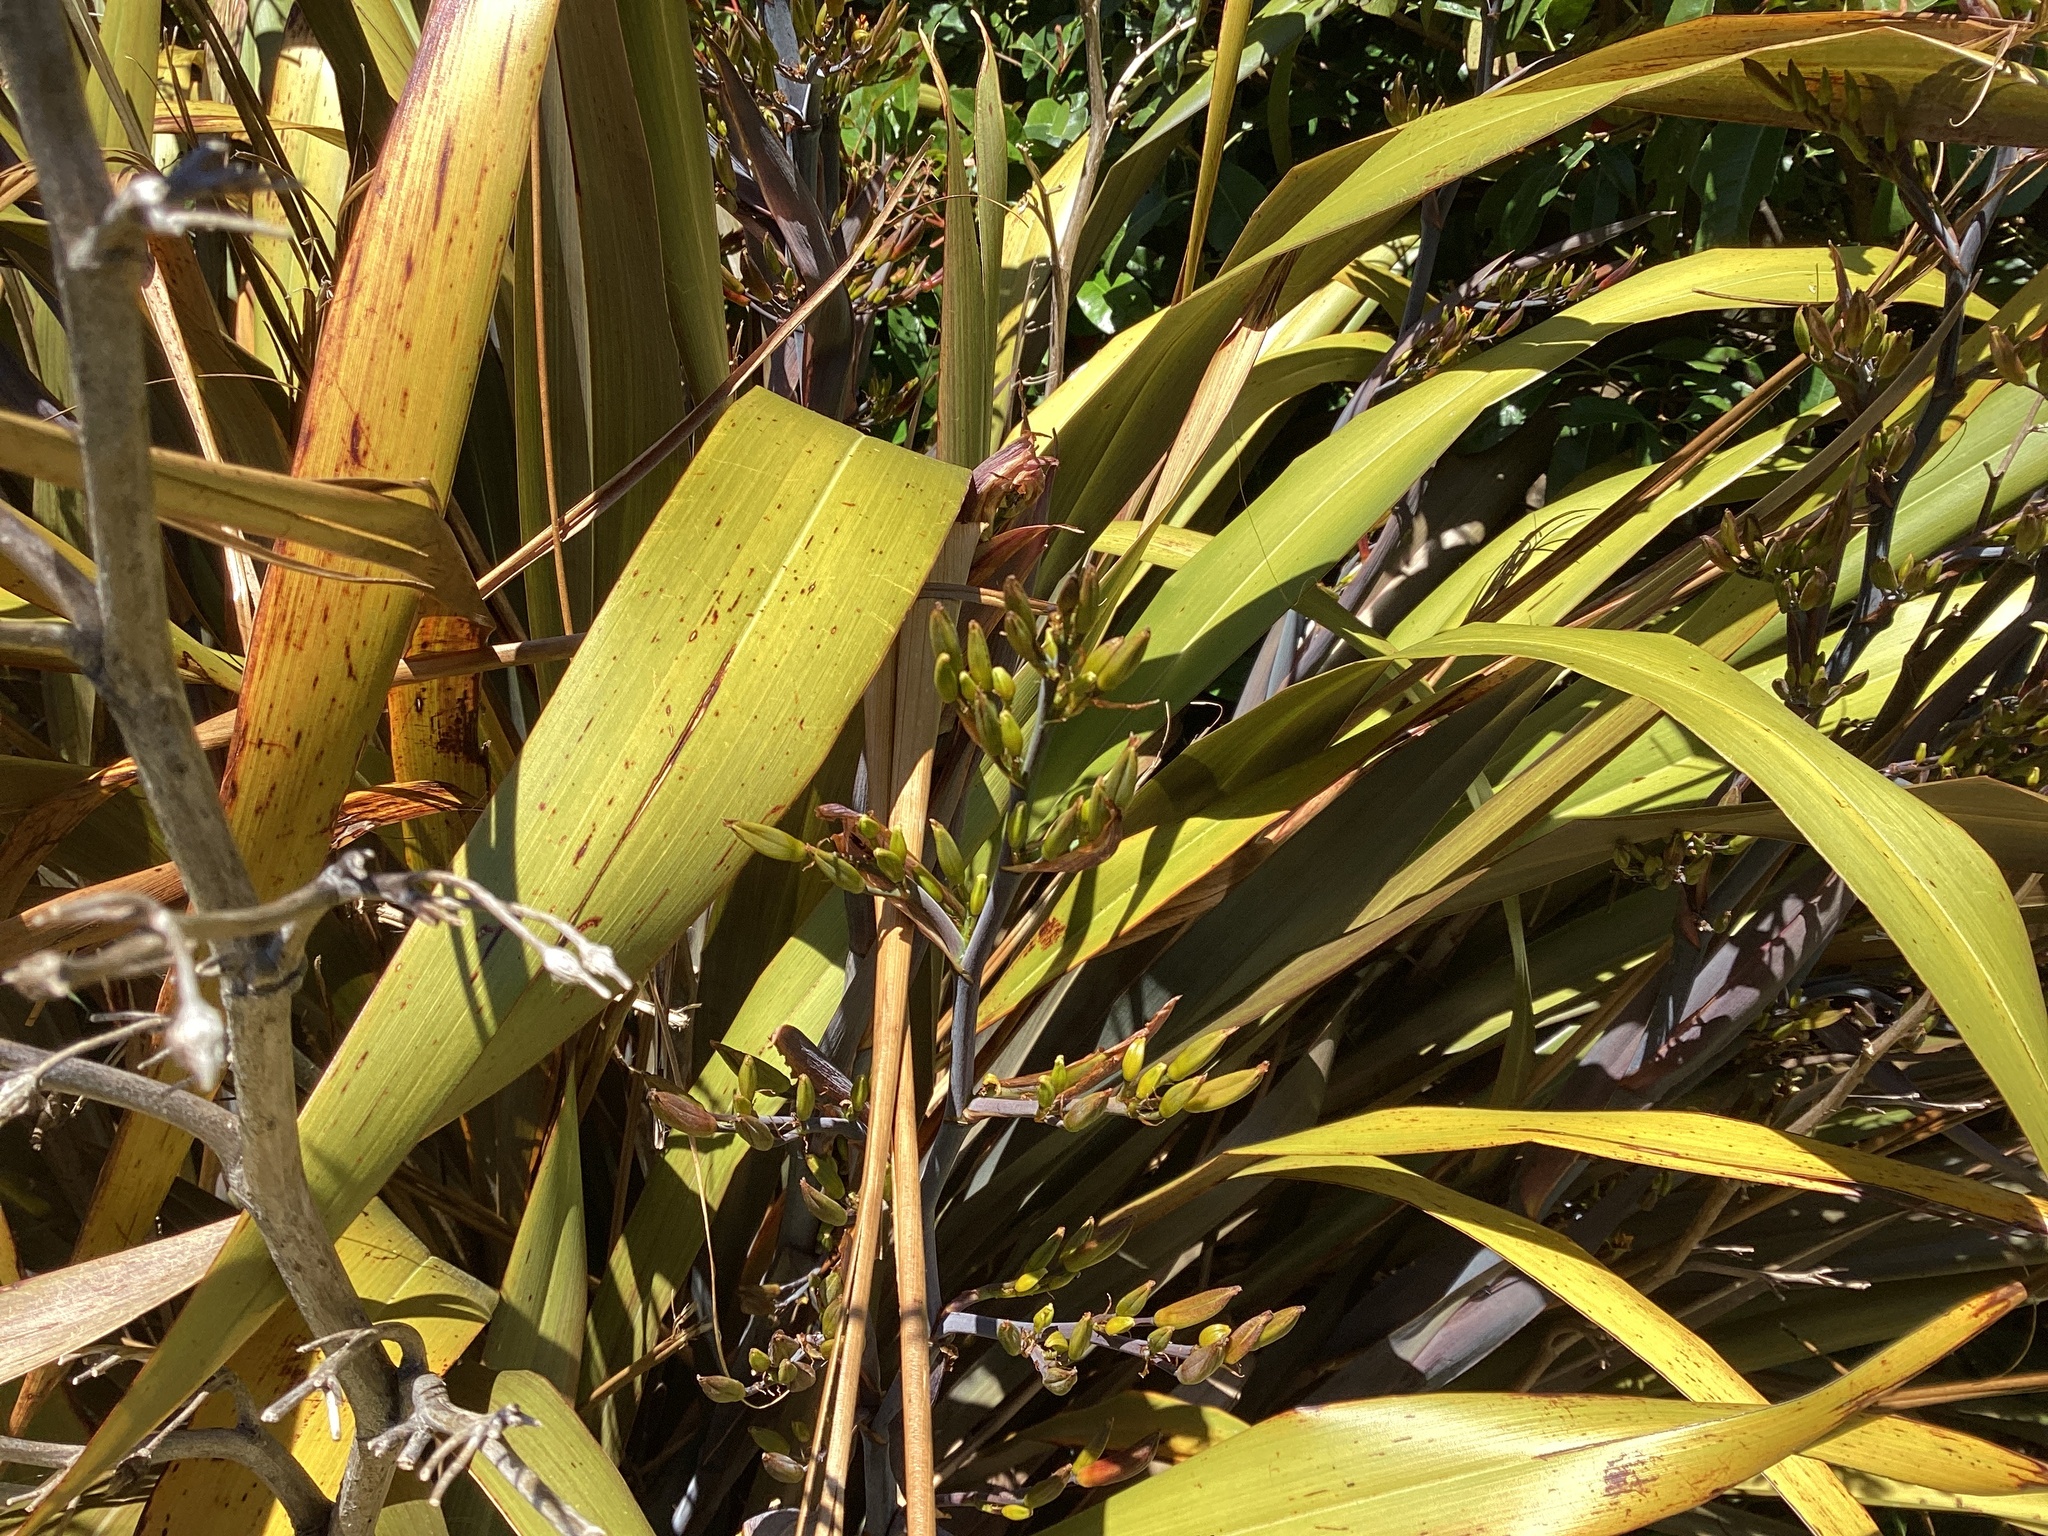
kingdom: Plantae
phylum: Tracheophyta
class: Liliopsida
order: Asparagales
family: Asphodelaceae
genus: Phormium
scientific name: Phormium colensoi
